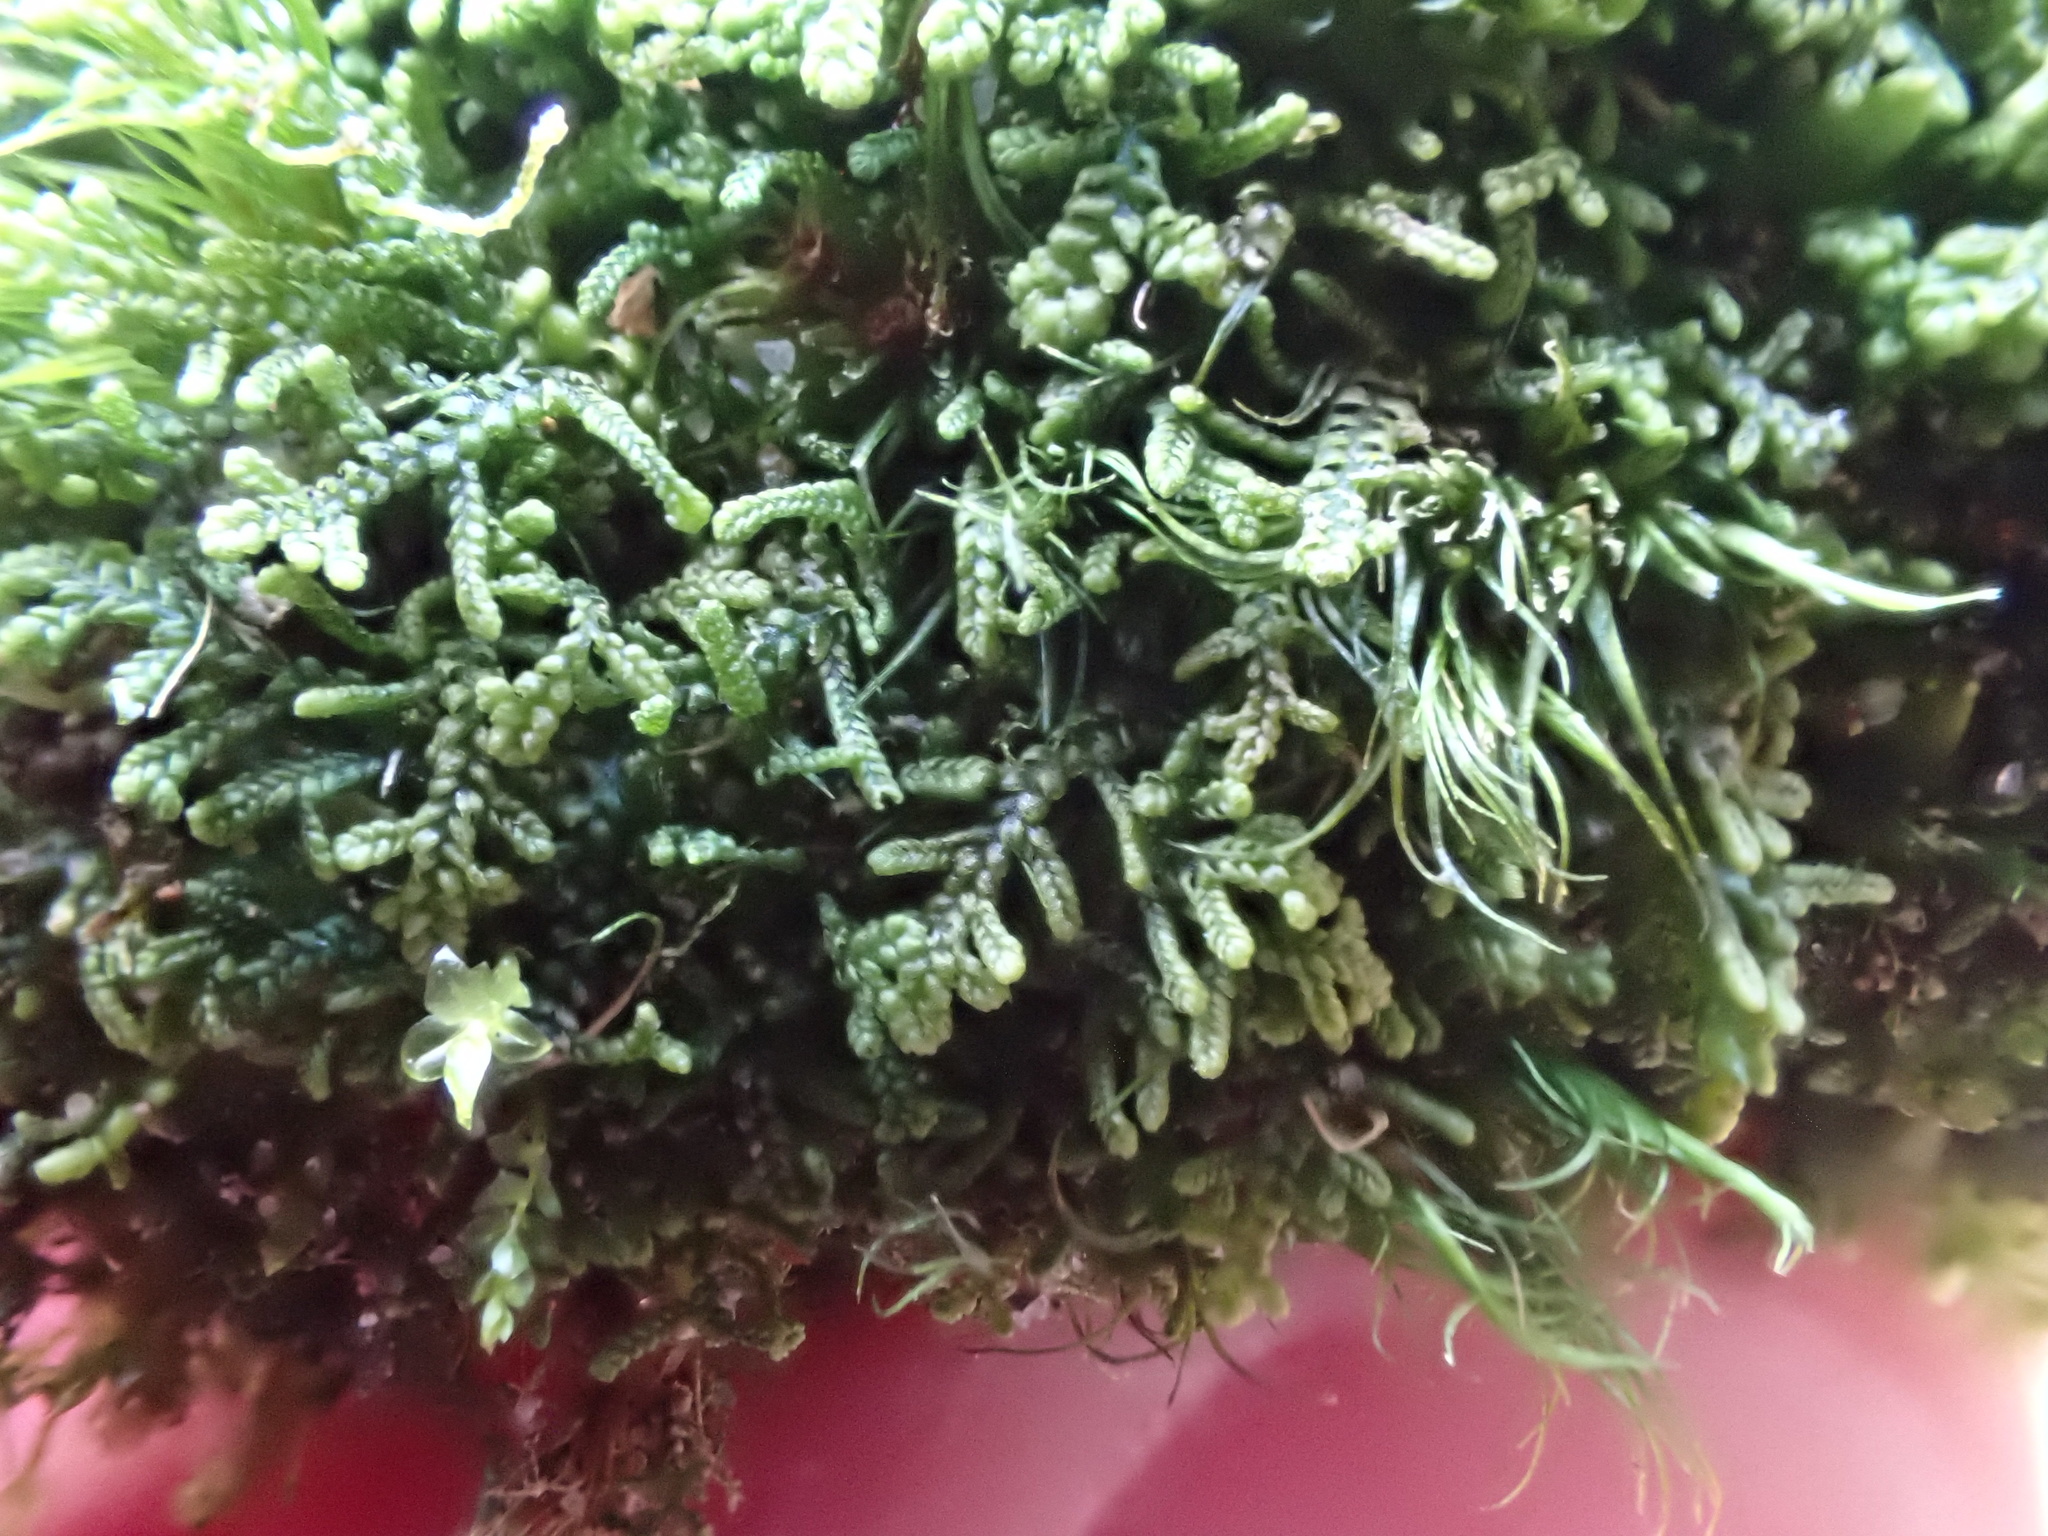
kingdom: Plantae
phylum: Marchantiophyta
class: Jungermanniopsida
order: Jungermanniales
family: Lepidoziaceae
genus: Lepidozia
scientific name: Lepidozia reptans
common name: Creeping fingerwort
